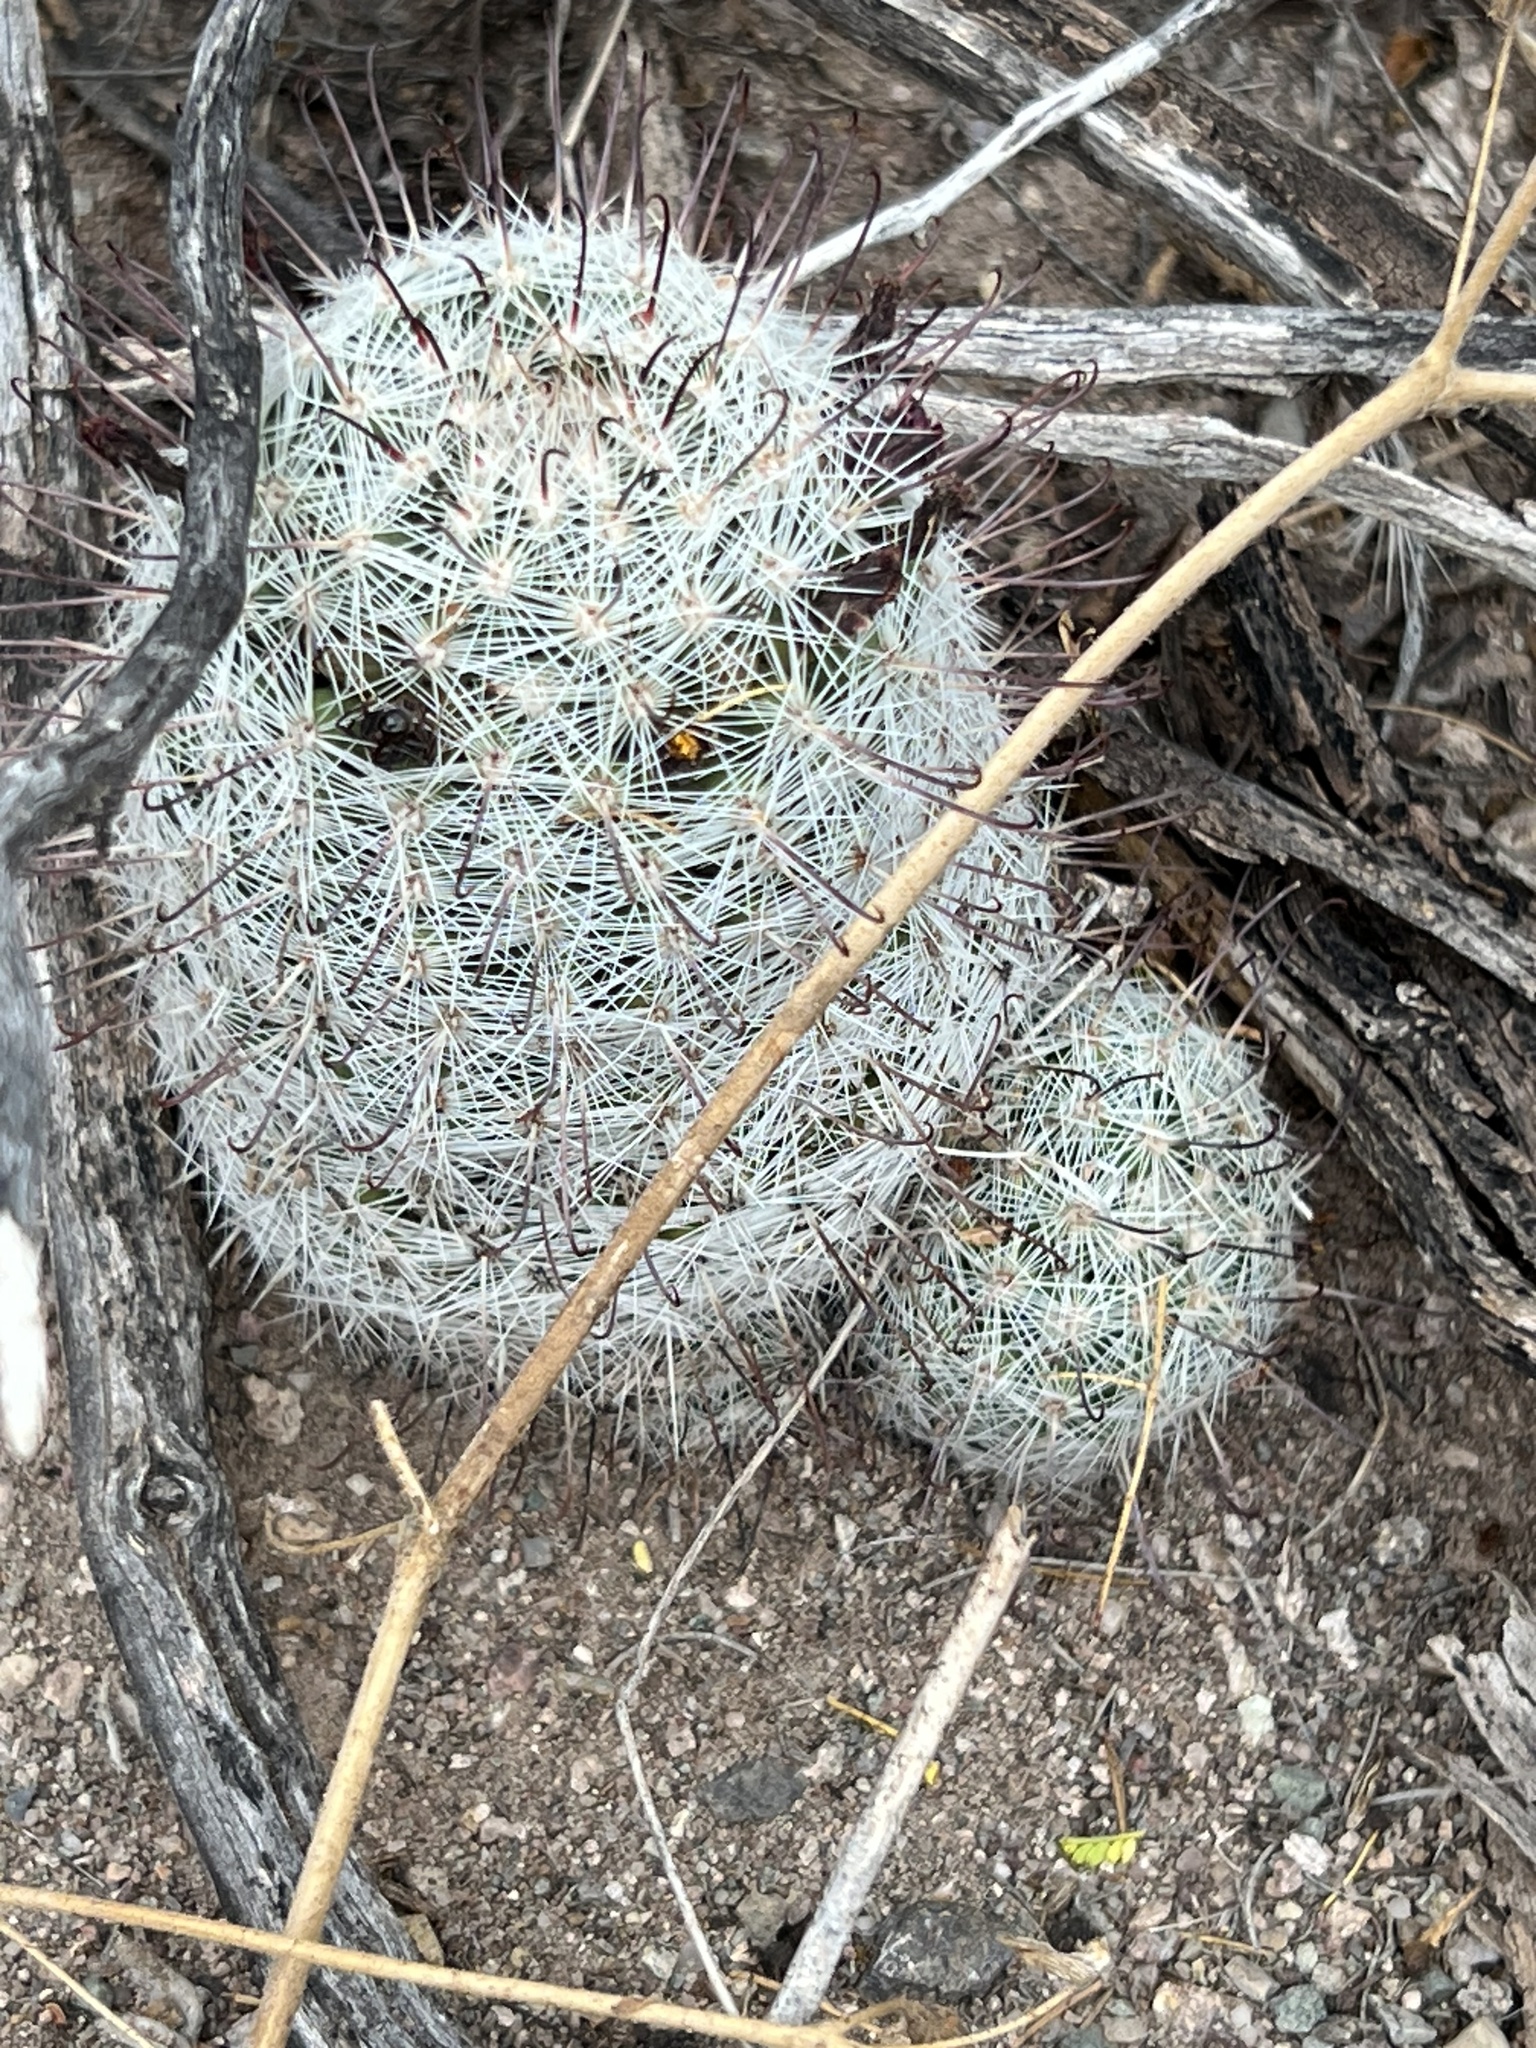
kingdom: Plantae
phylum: Tracheophyta
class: Magnoliopsida
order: Caryophyllales
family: Cactaceae
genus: Cochemiea
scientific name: Cochemiea grahamii
